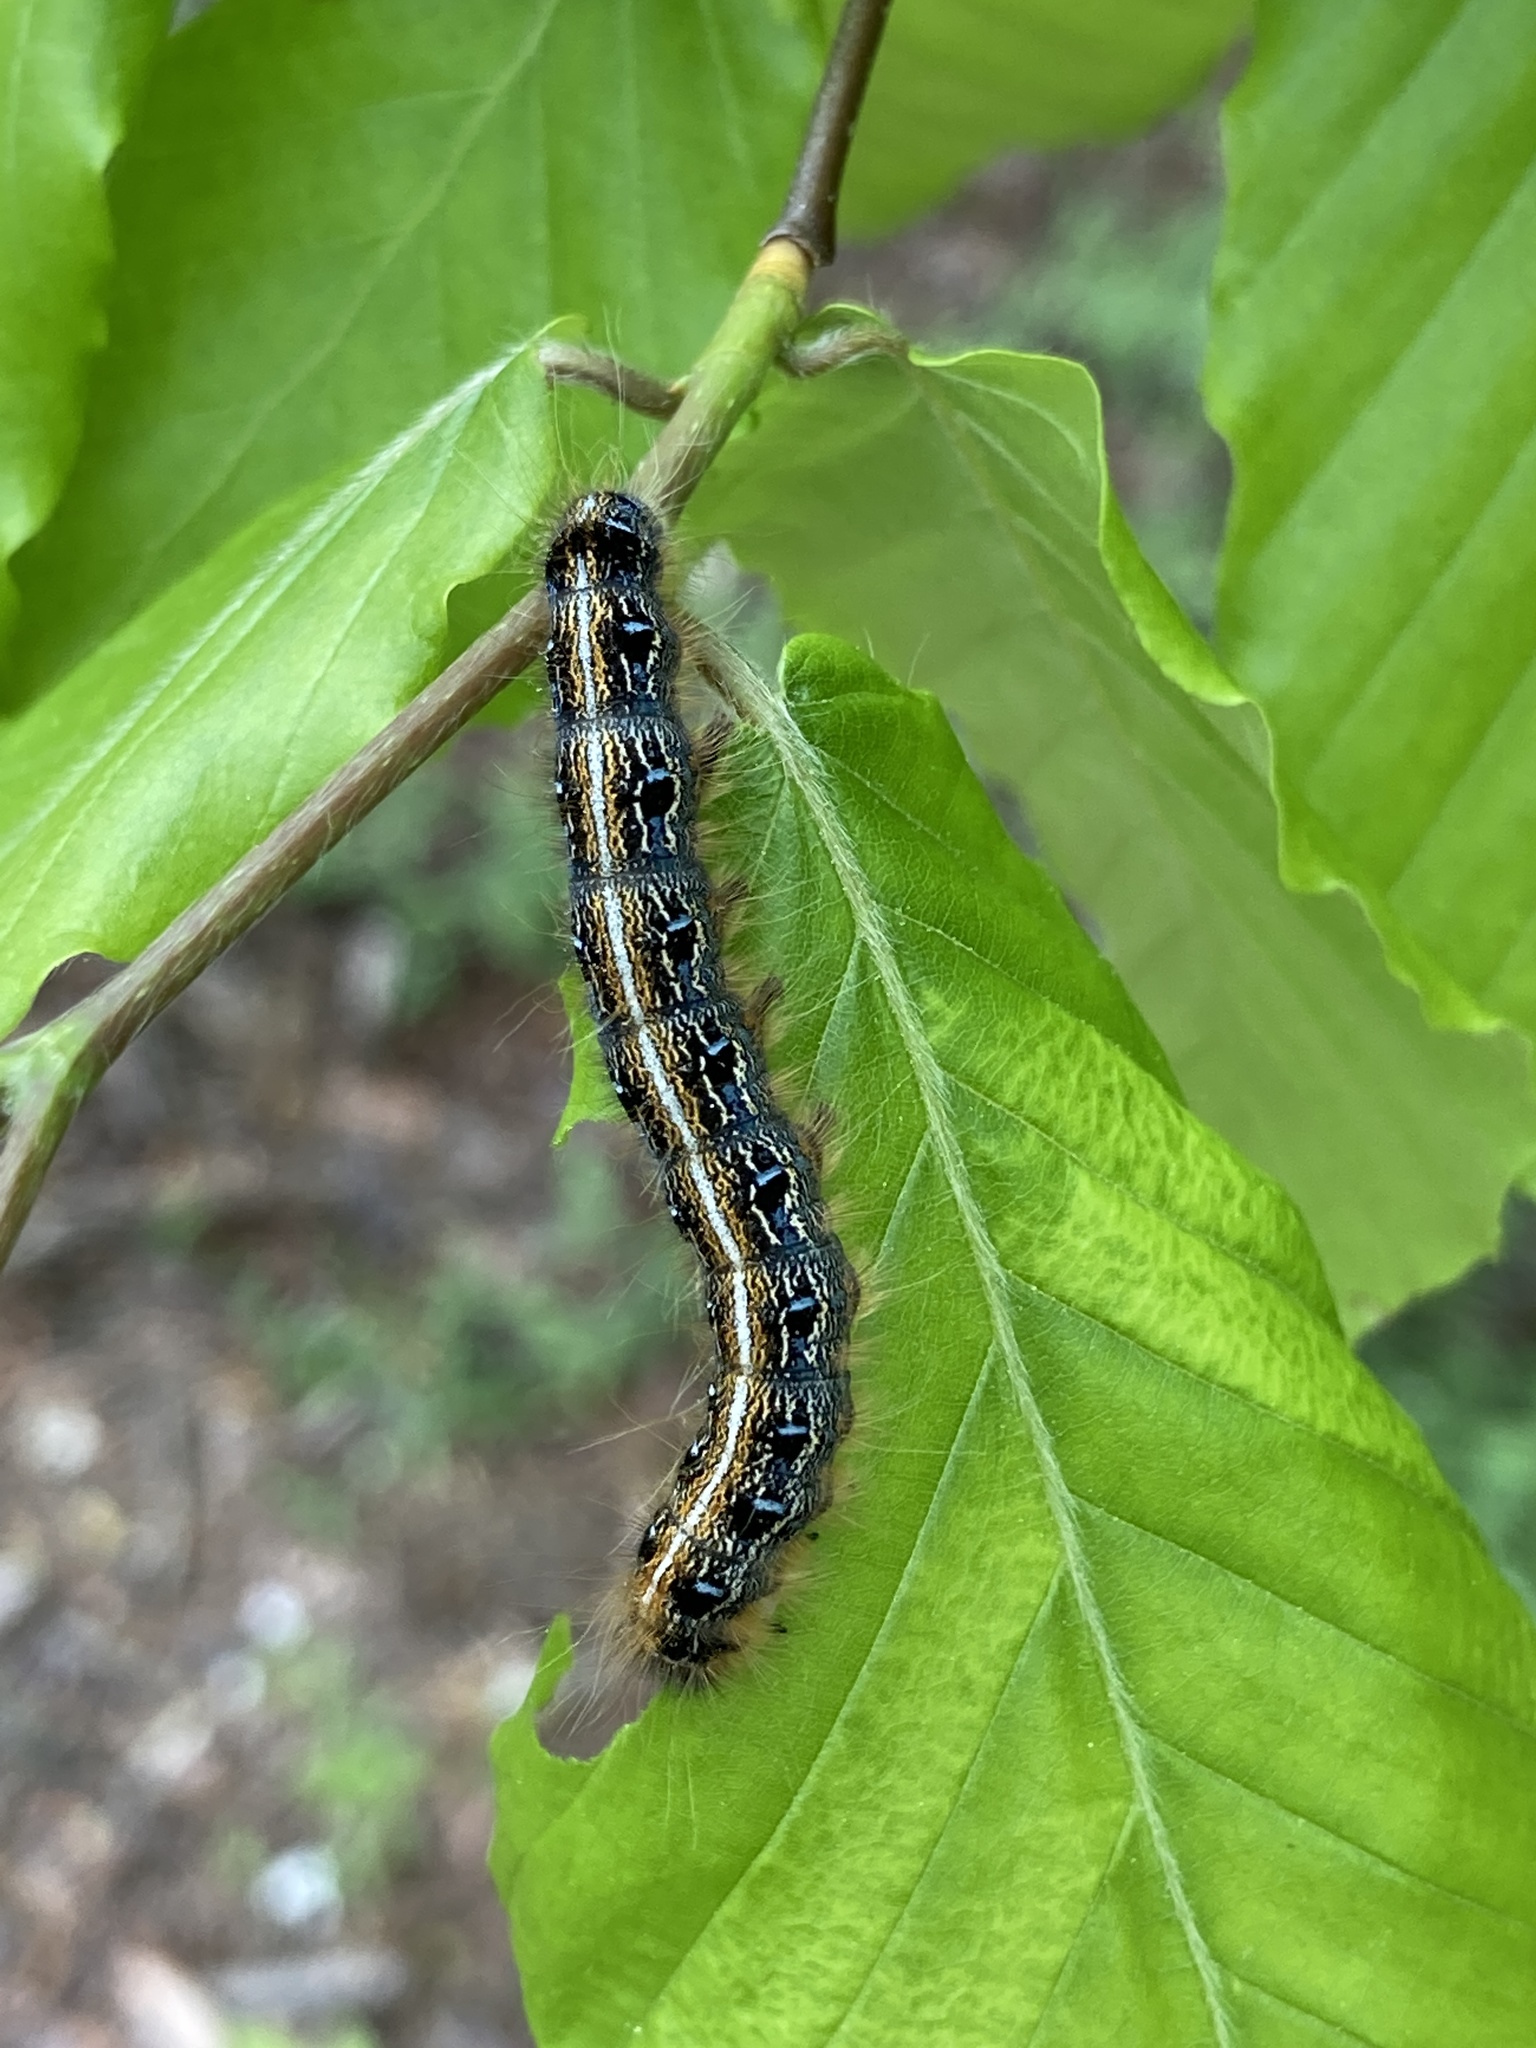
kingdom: Animalia
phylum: Arthropoda
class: Insecta
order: Lepidoptera
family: Lasiocampidae
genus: Malacosoma
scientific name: Malacosoma americana
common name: Eastern tent caterpillar moth
